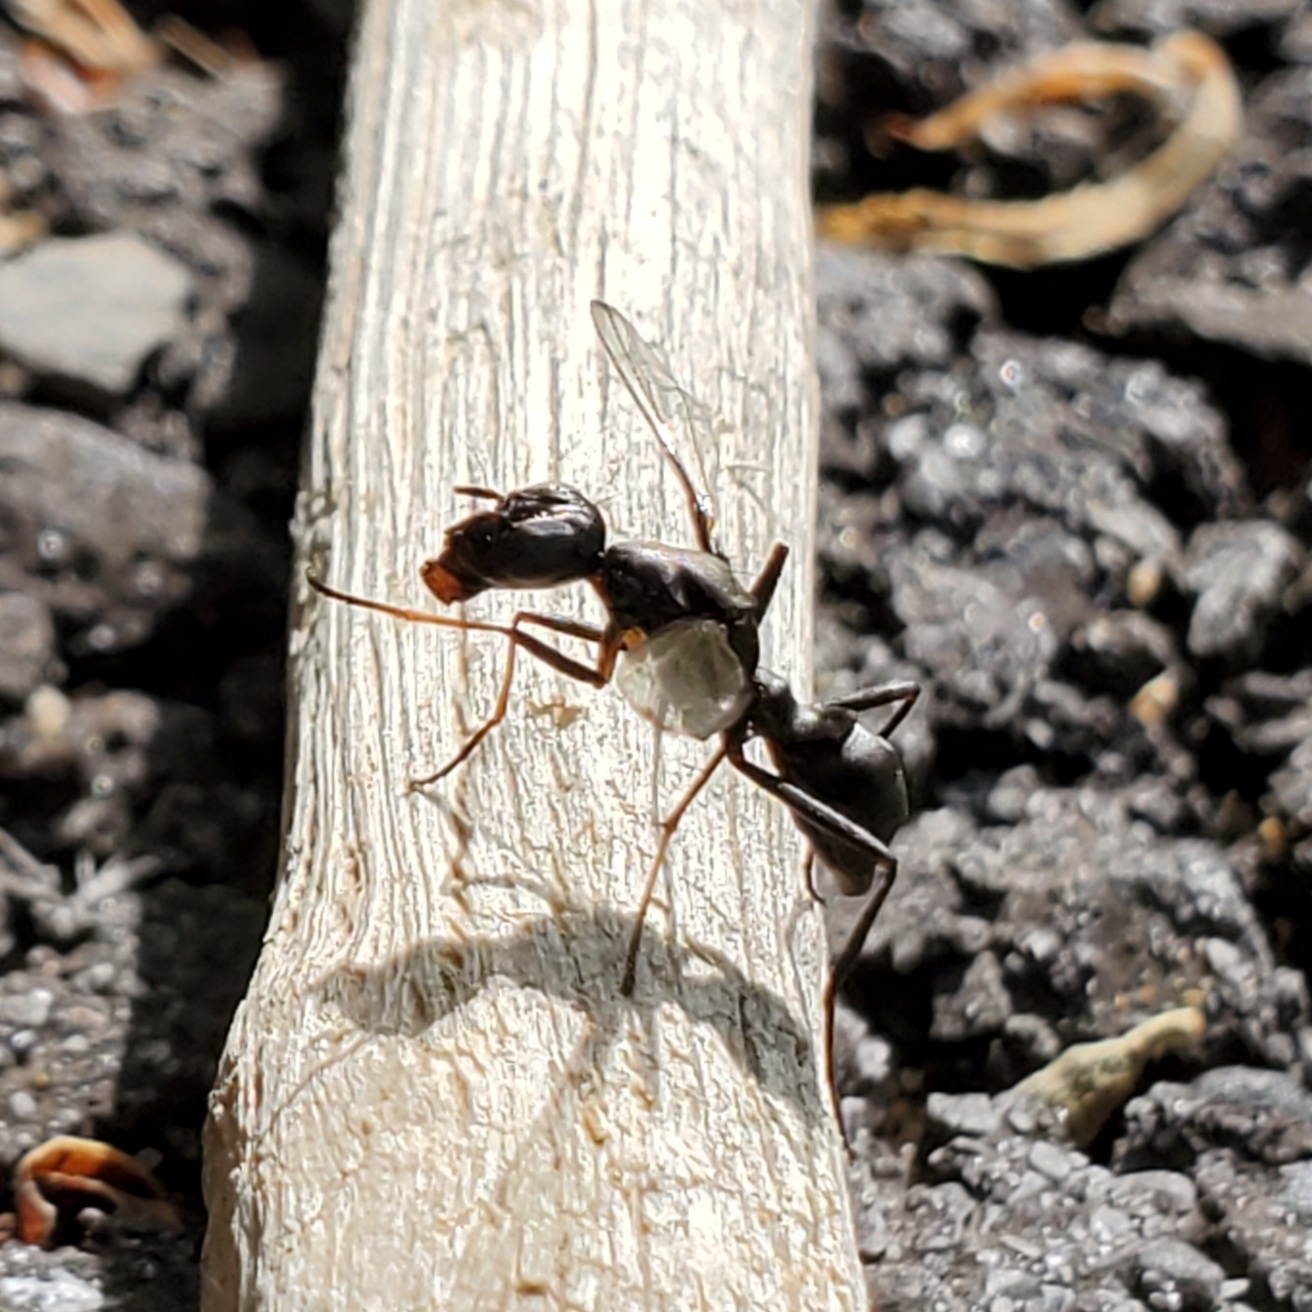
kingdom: Animalia
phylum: Arthropoda
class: Insecta
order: Diptera
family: Ulidiidae
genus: Myrmecothea
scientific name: Myrmecothea myrmecoides
